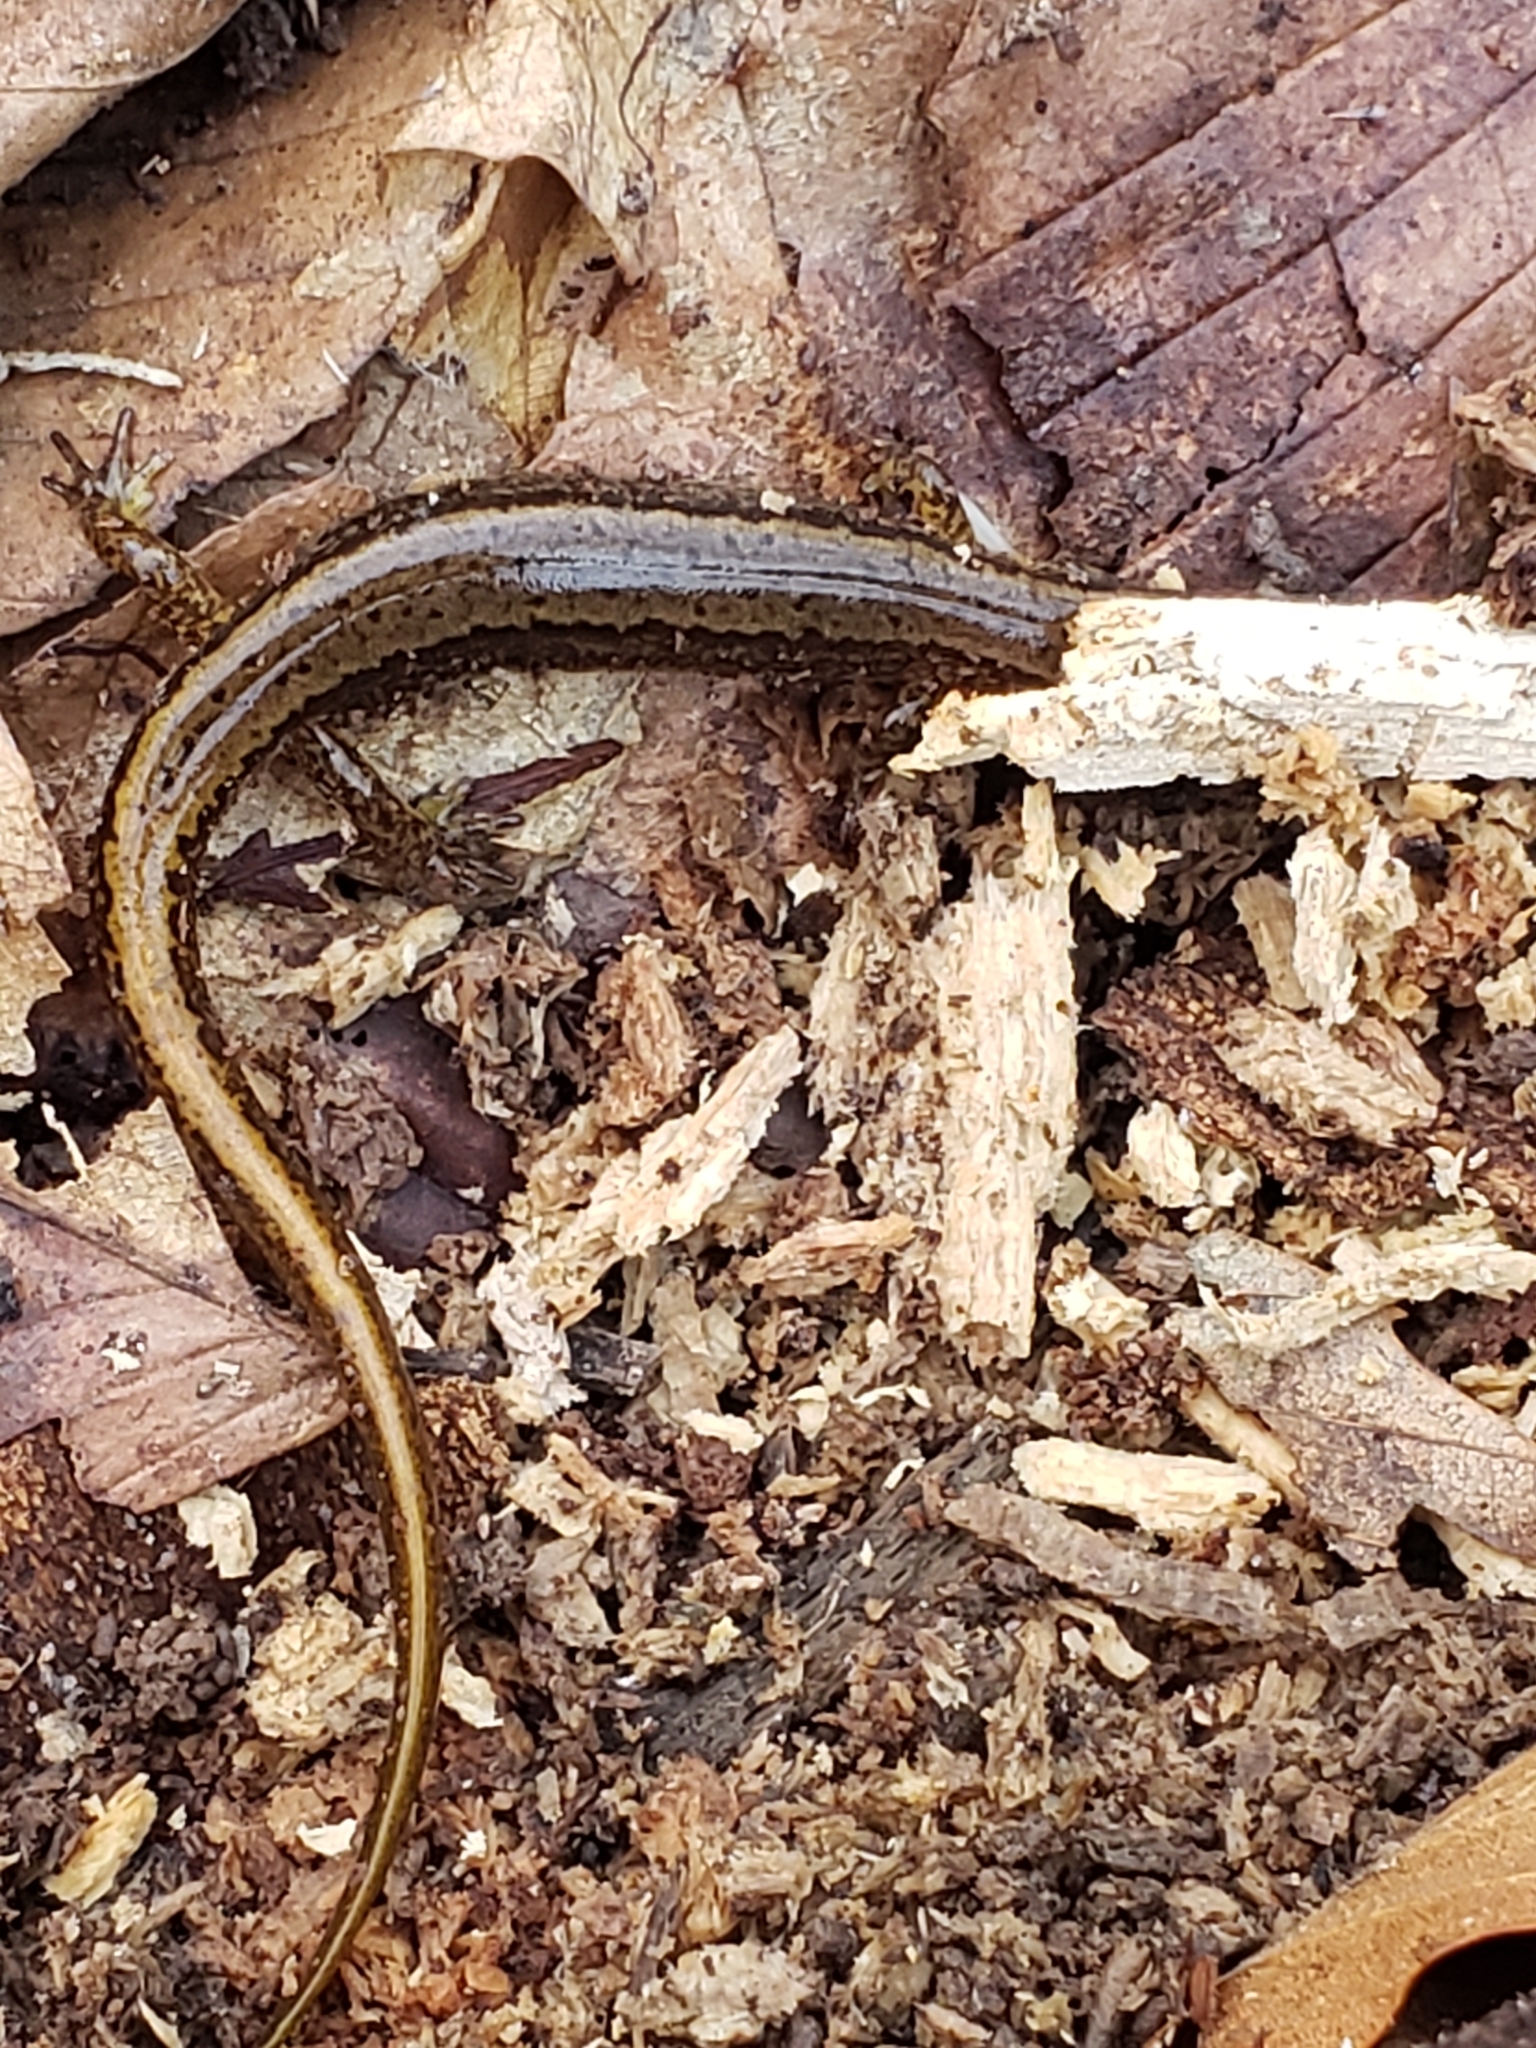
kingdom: Animalia
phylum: Chordata
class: Amphibia
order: Caudata
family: Plethodontidae
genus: Eurycea
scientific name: Eurycea bislineata
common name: Northern two-lined salamander
